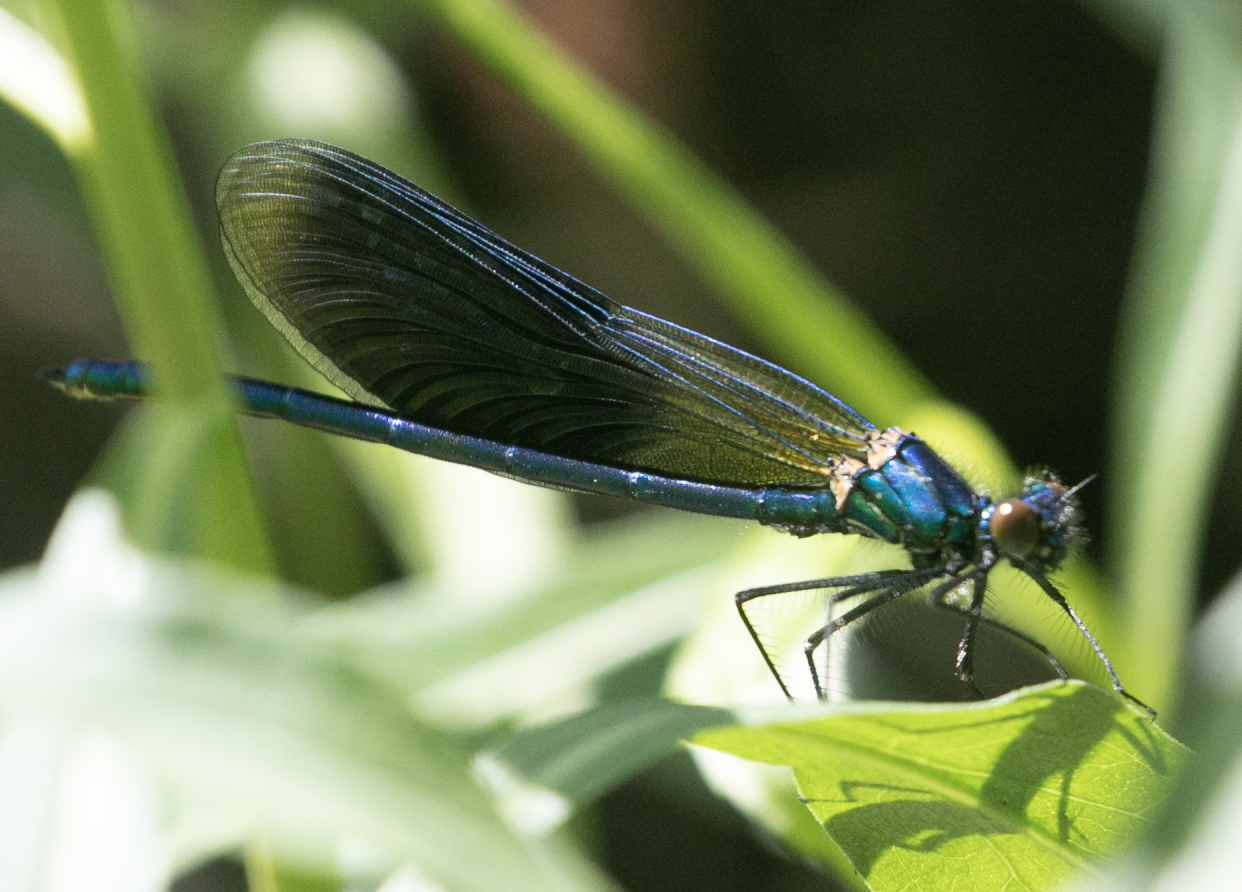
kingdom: Animalia
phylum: Arthropoda
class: Insecta
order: Odonata
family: Calopterygidae
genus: Calopteryx
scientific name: Calopteryx splendens
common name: Banded demoiselle
